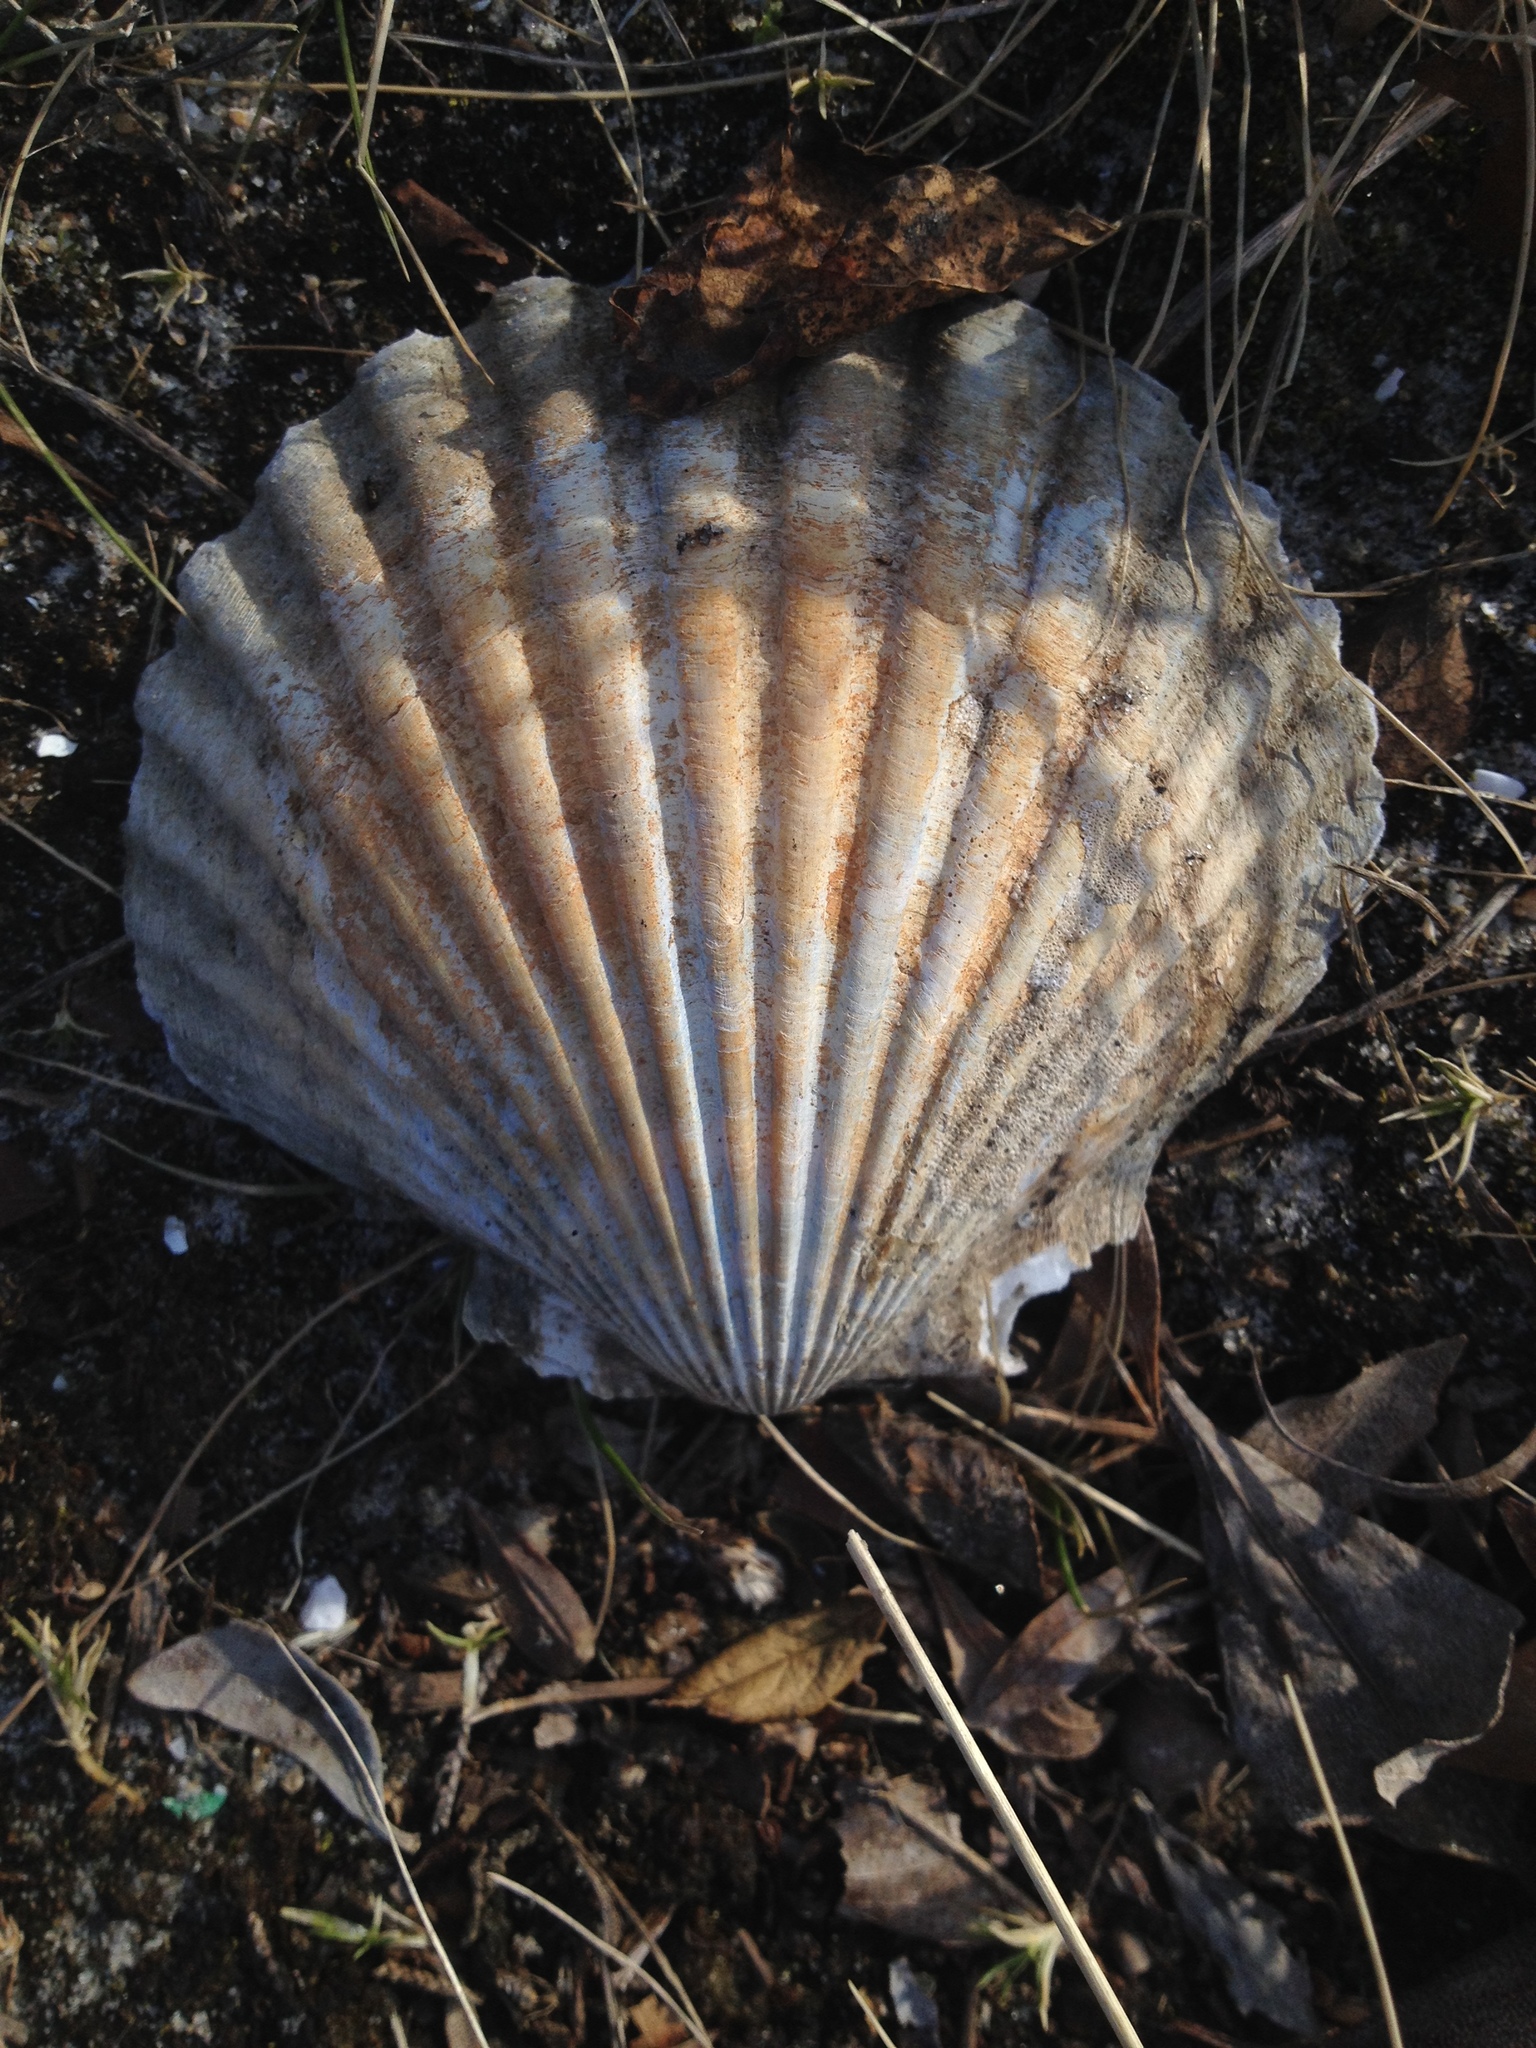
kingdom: Animalia
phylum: Mollusca
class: Bivalvia
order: Pectinida
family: Pectinidae
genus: Argopecten
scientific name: Argopecten irradians
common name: Atlantic bay scallop
